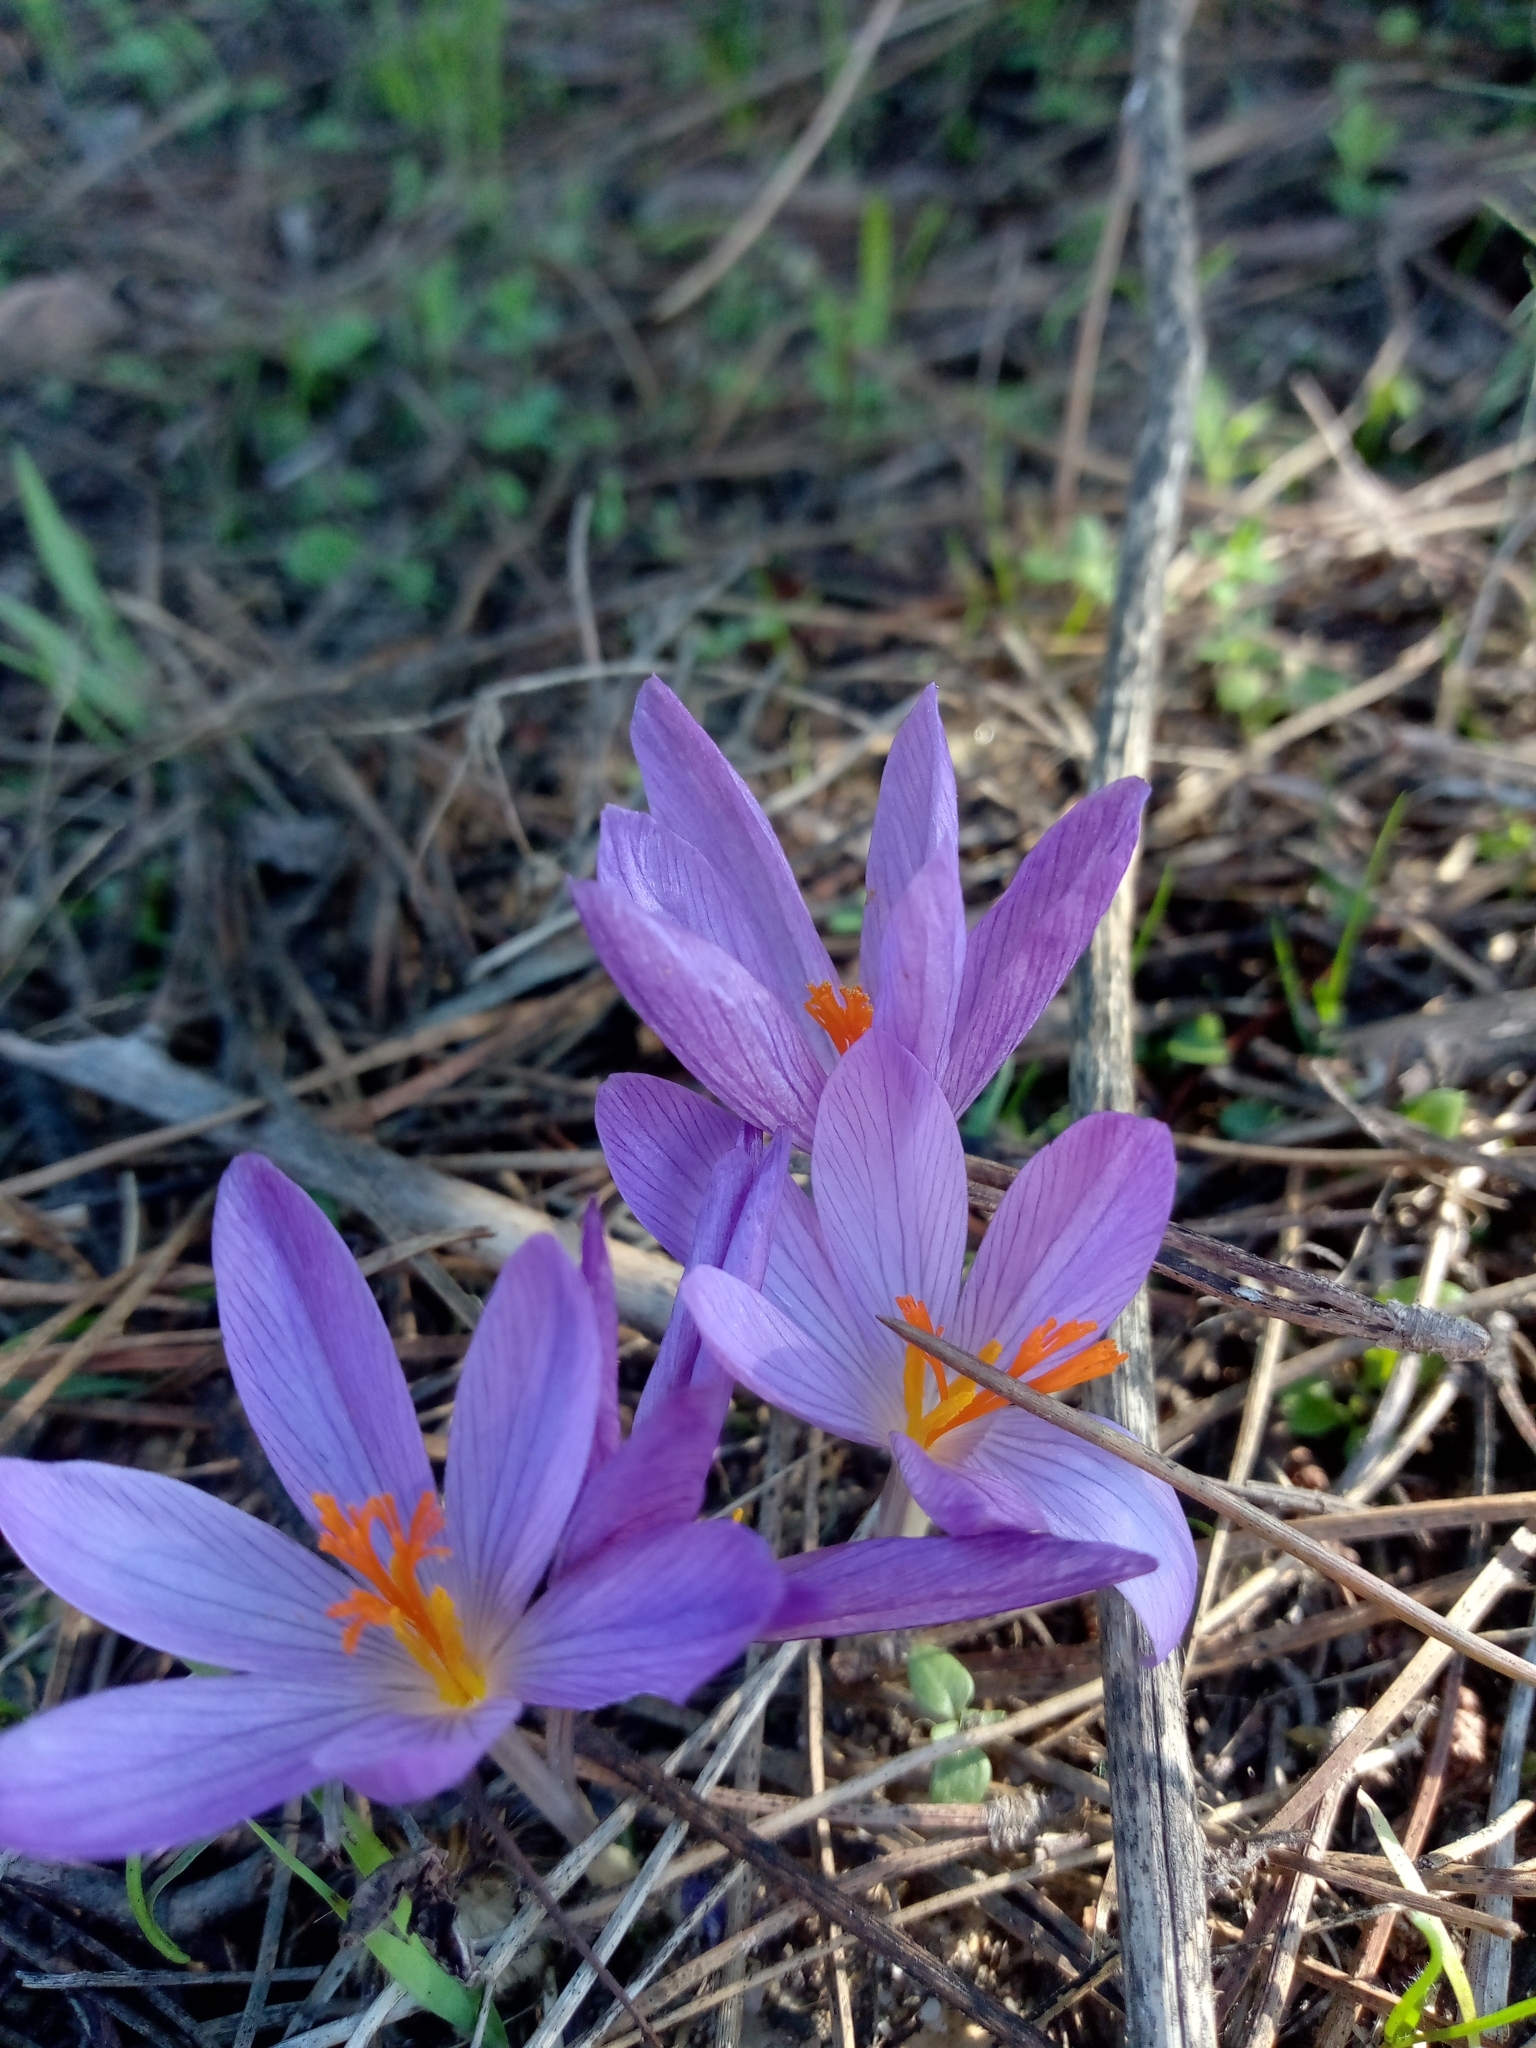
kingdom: Plantae
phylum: Tracheophyta
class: Liliopsida
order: Asparagales
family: Iridaceae
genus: Crocus
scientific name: Crocus serotinus
